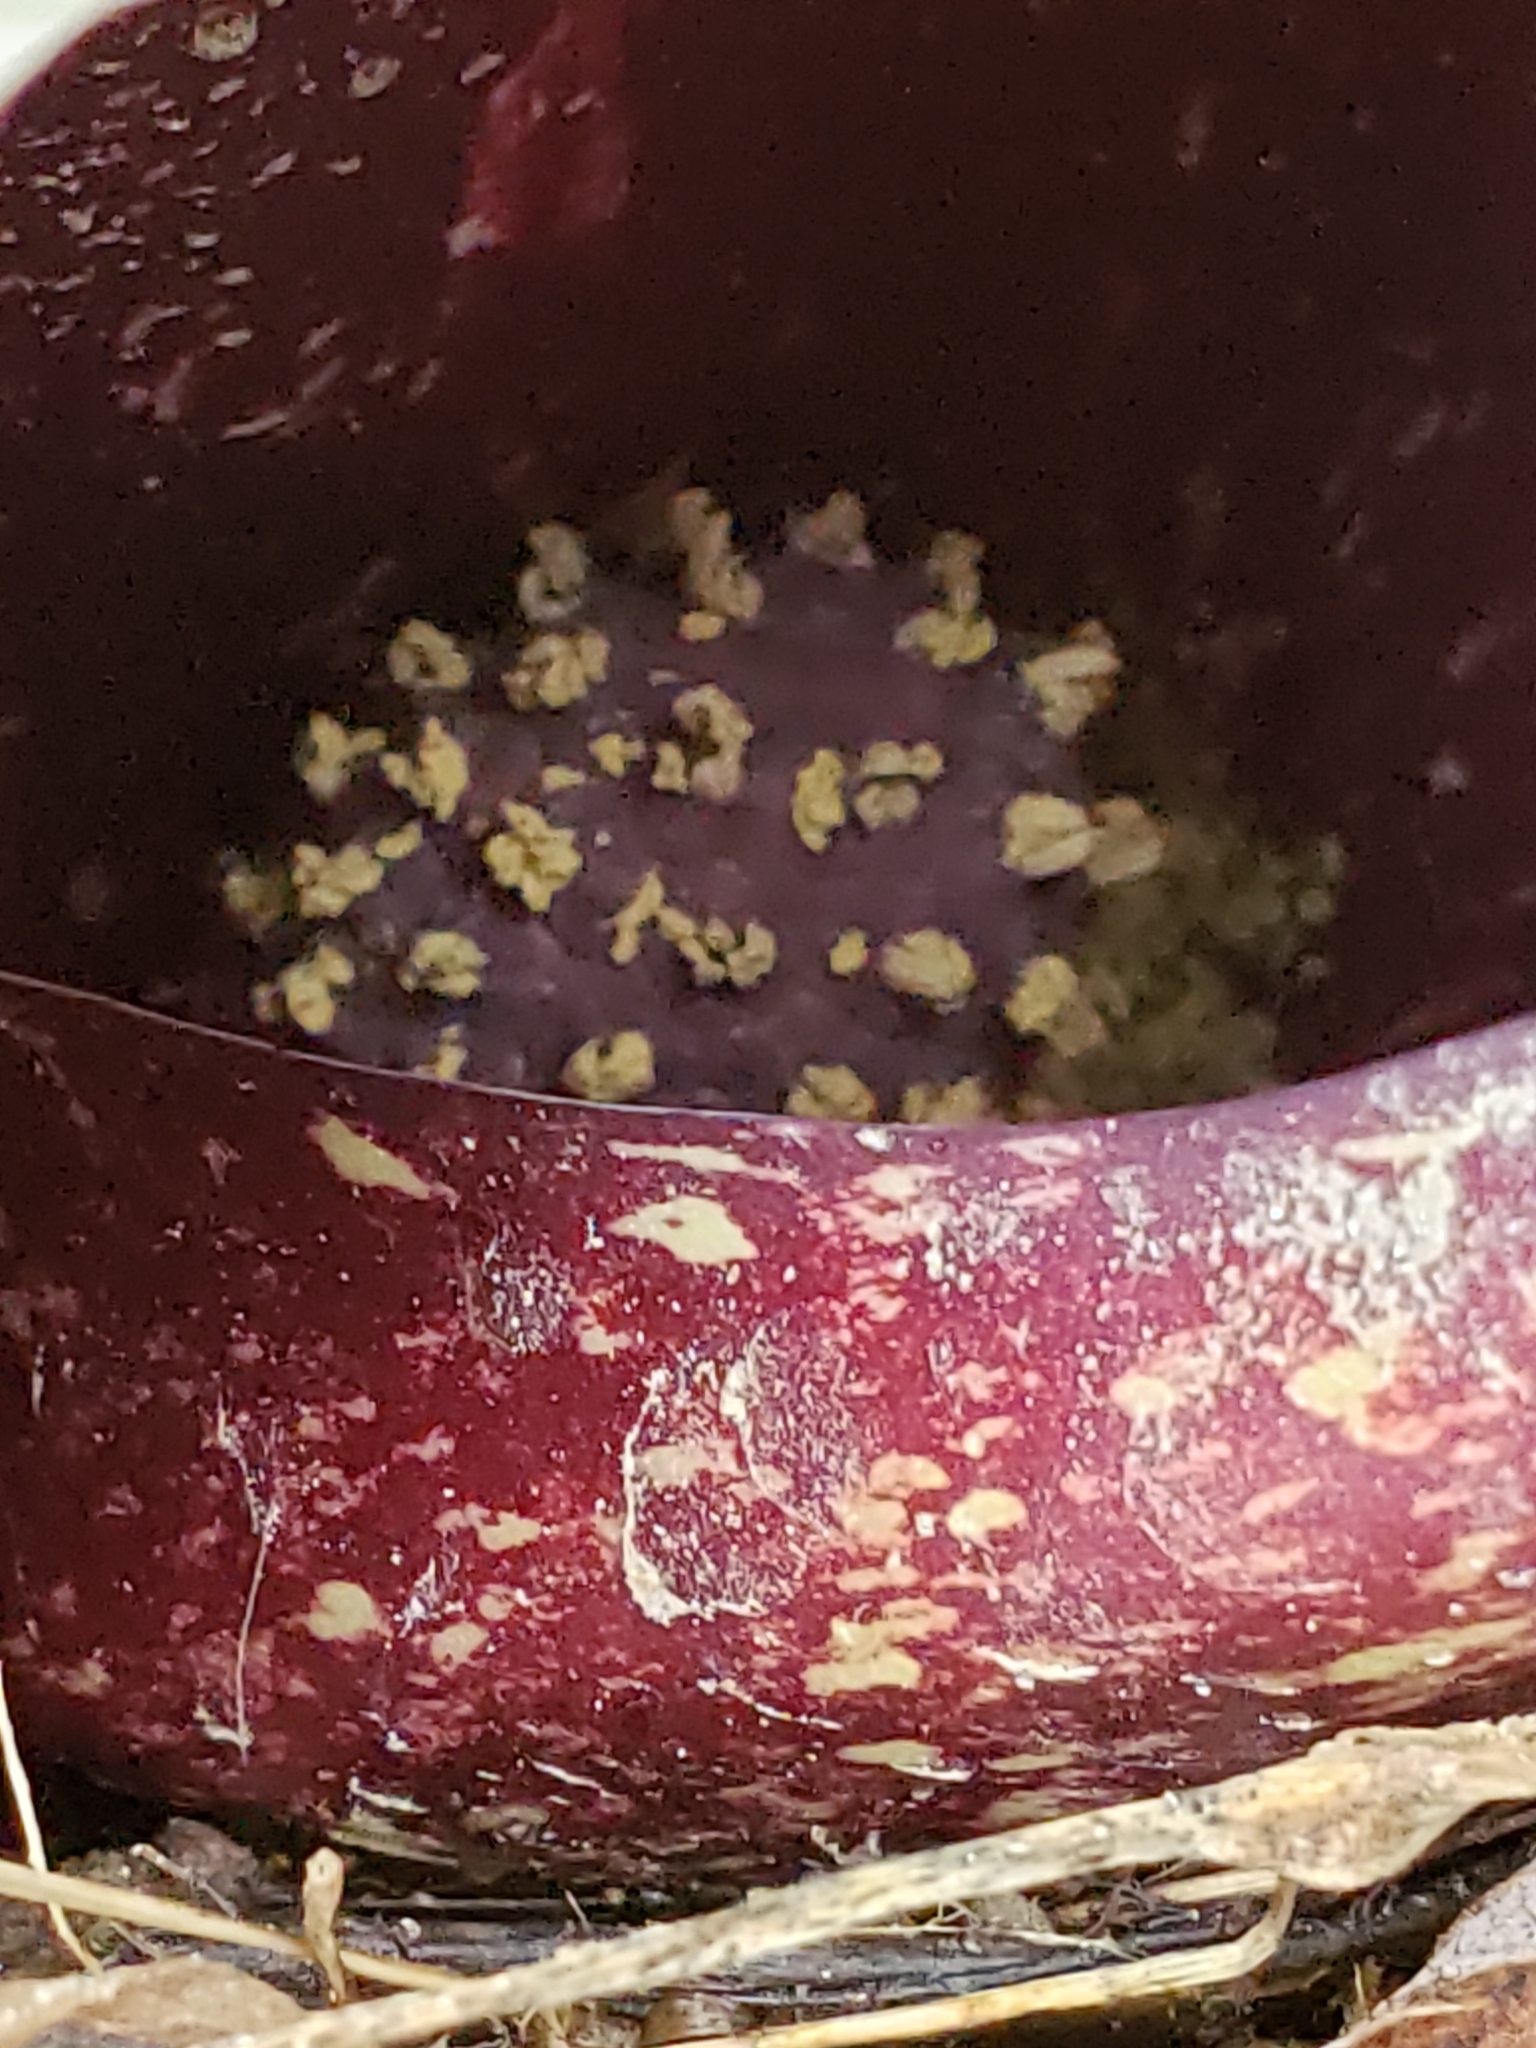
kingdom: Plantae
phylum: Tracheophyta
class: Liliopsida
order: Alismatales
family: Araceae
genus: Symplocarpus
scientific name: Symplocarpus foetidus
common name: Eastern skunk cabbage
